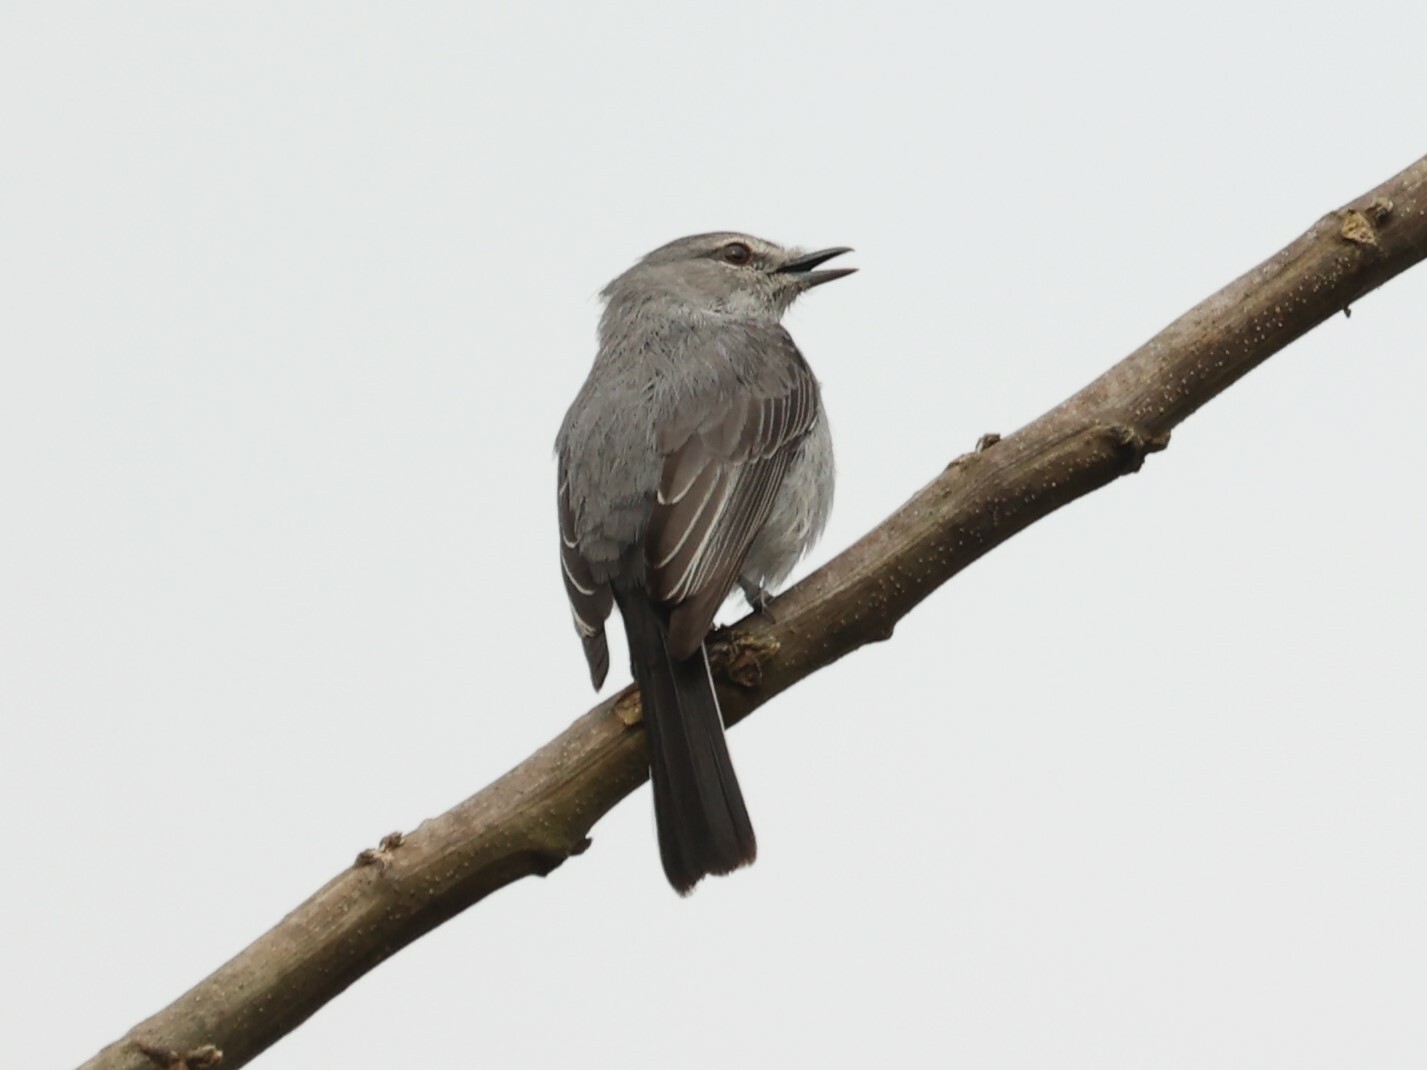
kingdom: Animalia
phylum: Chordata
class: Aves
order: Passeriformes
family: Muscicapidae
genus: Myioparus
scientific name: Myioparus plumbeus
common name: Grey tit-flycatcher
